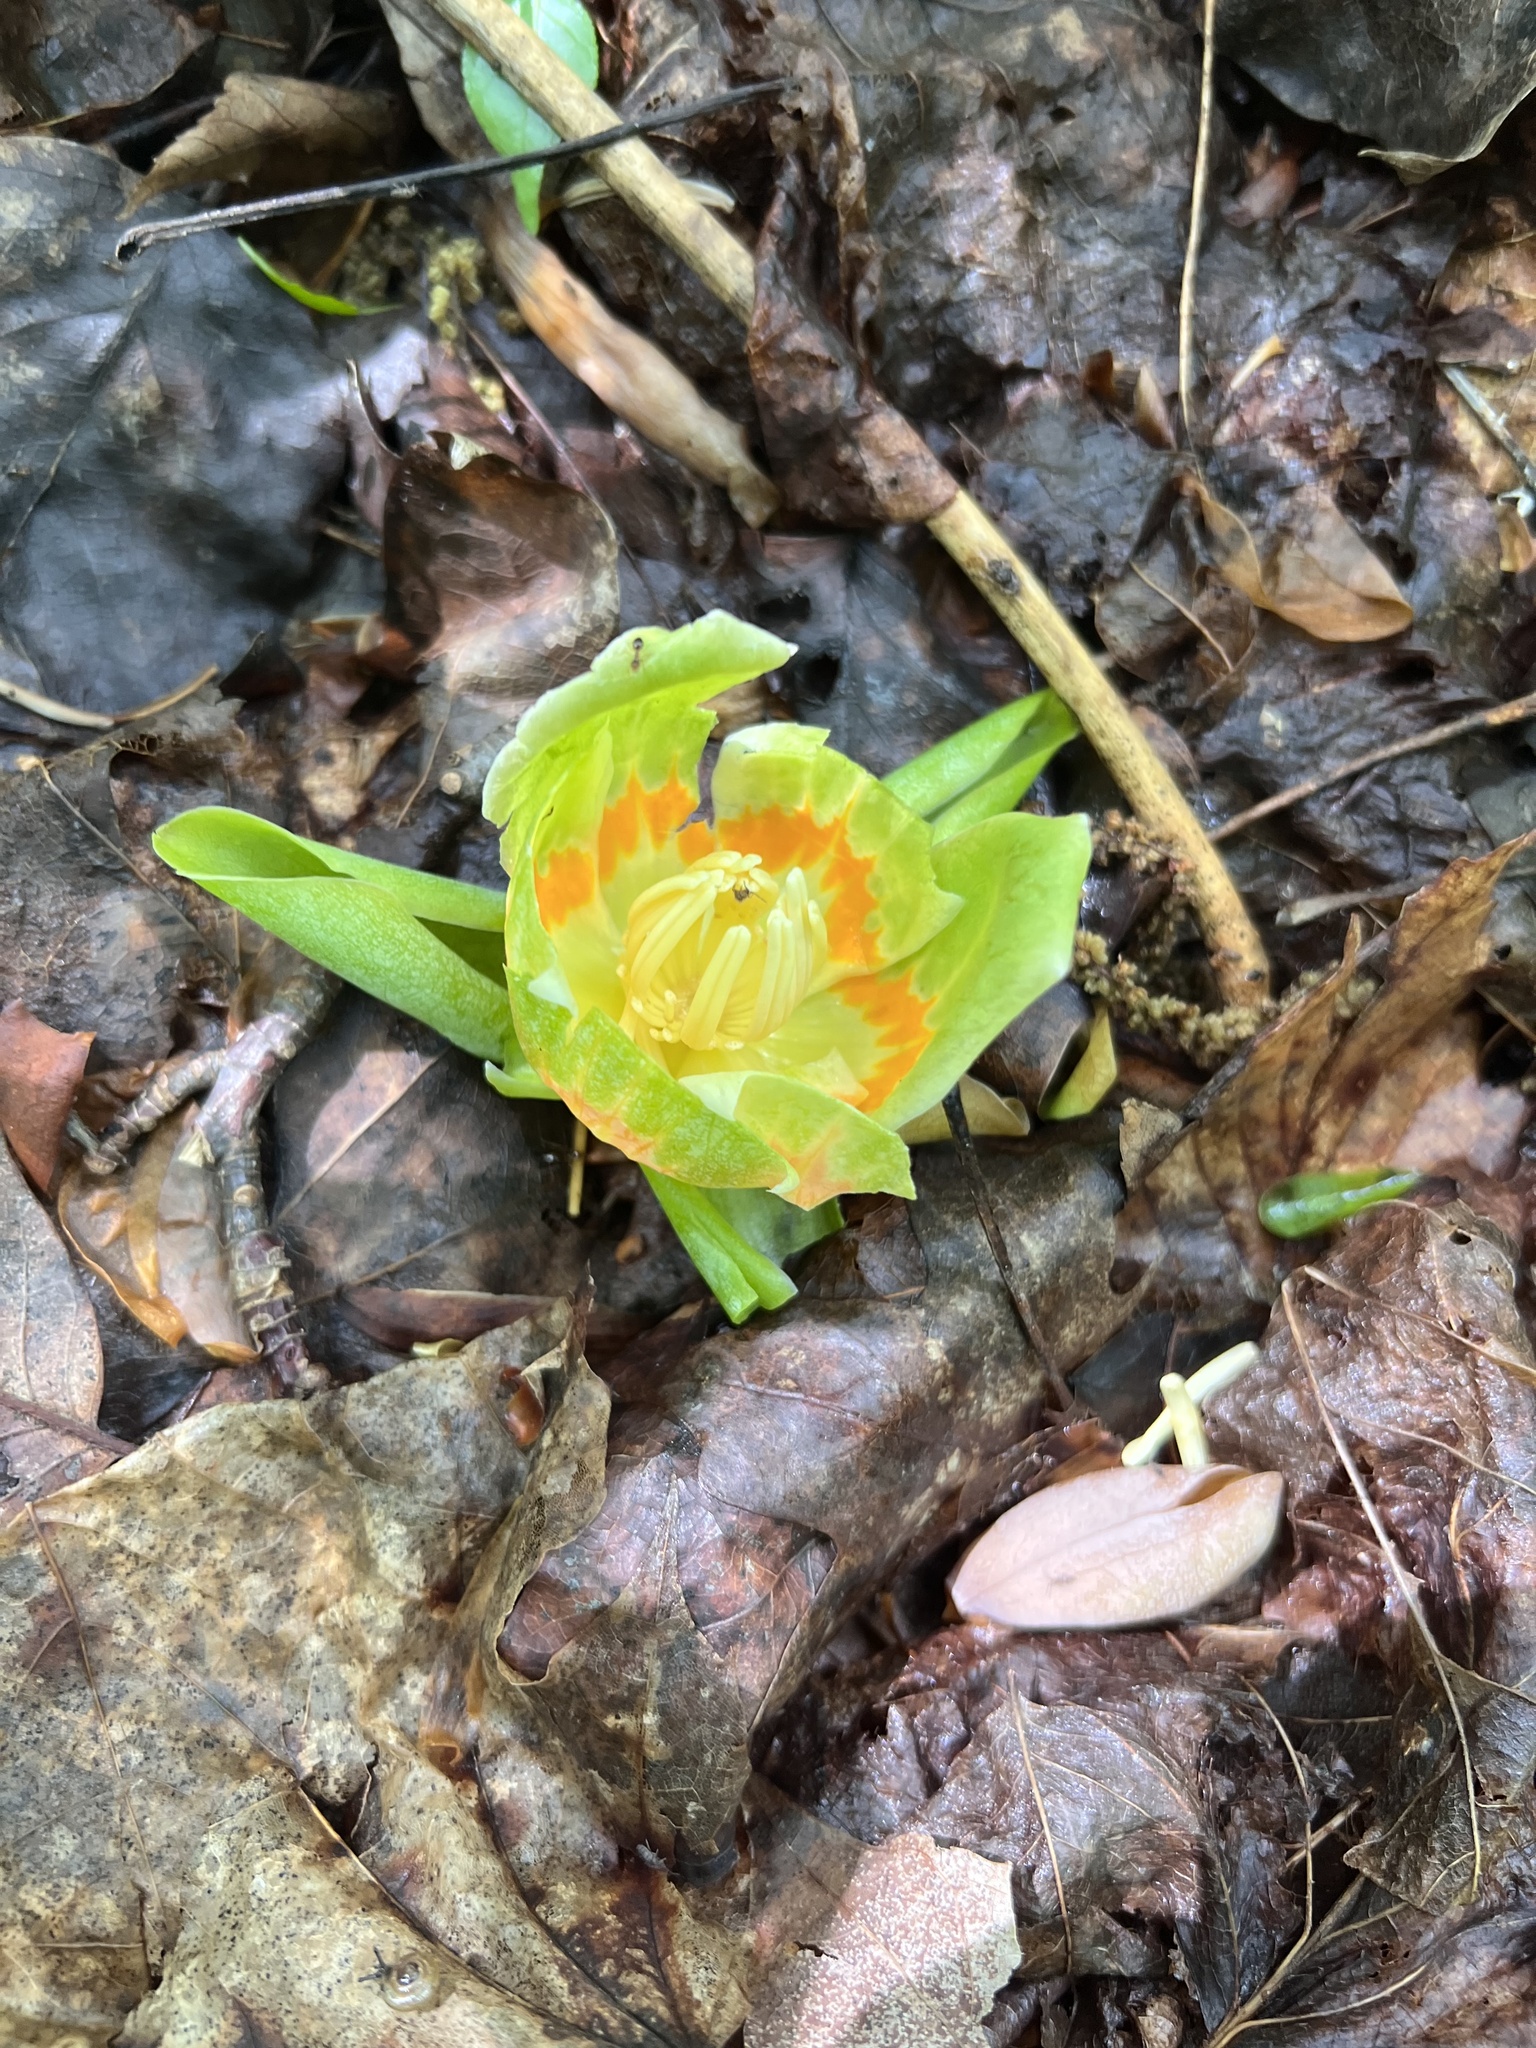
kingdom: Plantae
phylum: Tracheophyta
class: Magnoliopsida
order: Magnoliales
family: Magnoliaceae
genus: Liriodendron
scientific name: Liriodendron tulipifera
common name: Tulip tree
